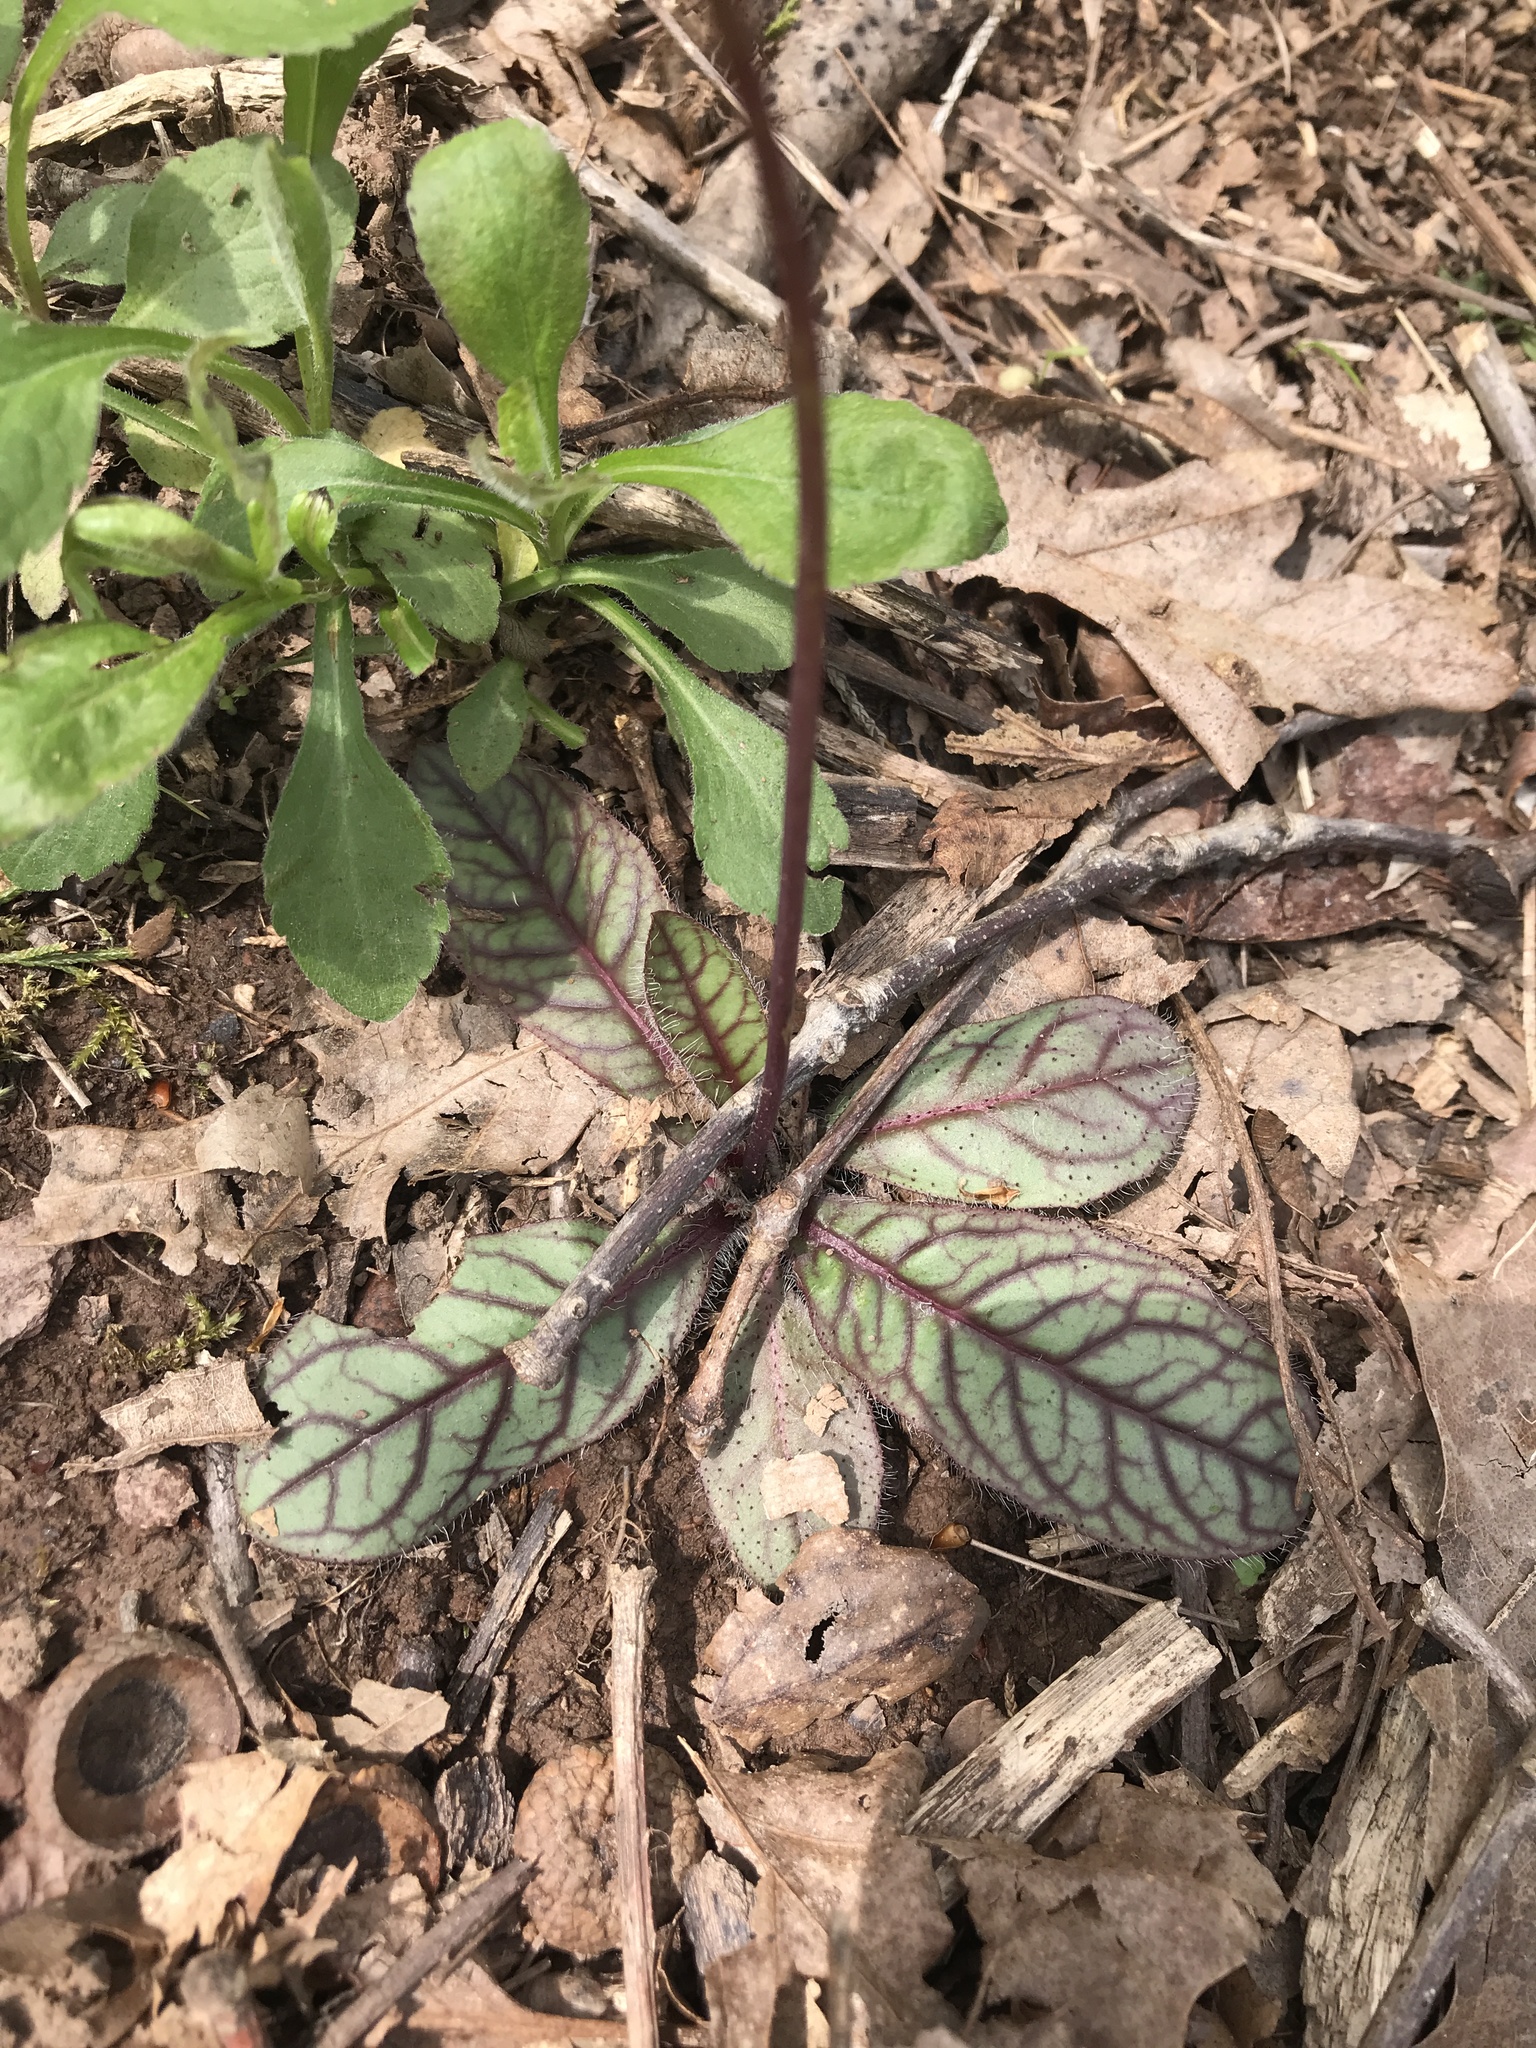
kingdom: Plantae
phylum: Tracheophyta
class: Magnoliopsida
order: Asterales
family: Asteraceae
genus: Hieracium
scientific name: Hieracium venosum
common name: Rattlesnake hawkweed
